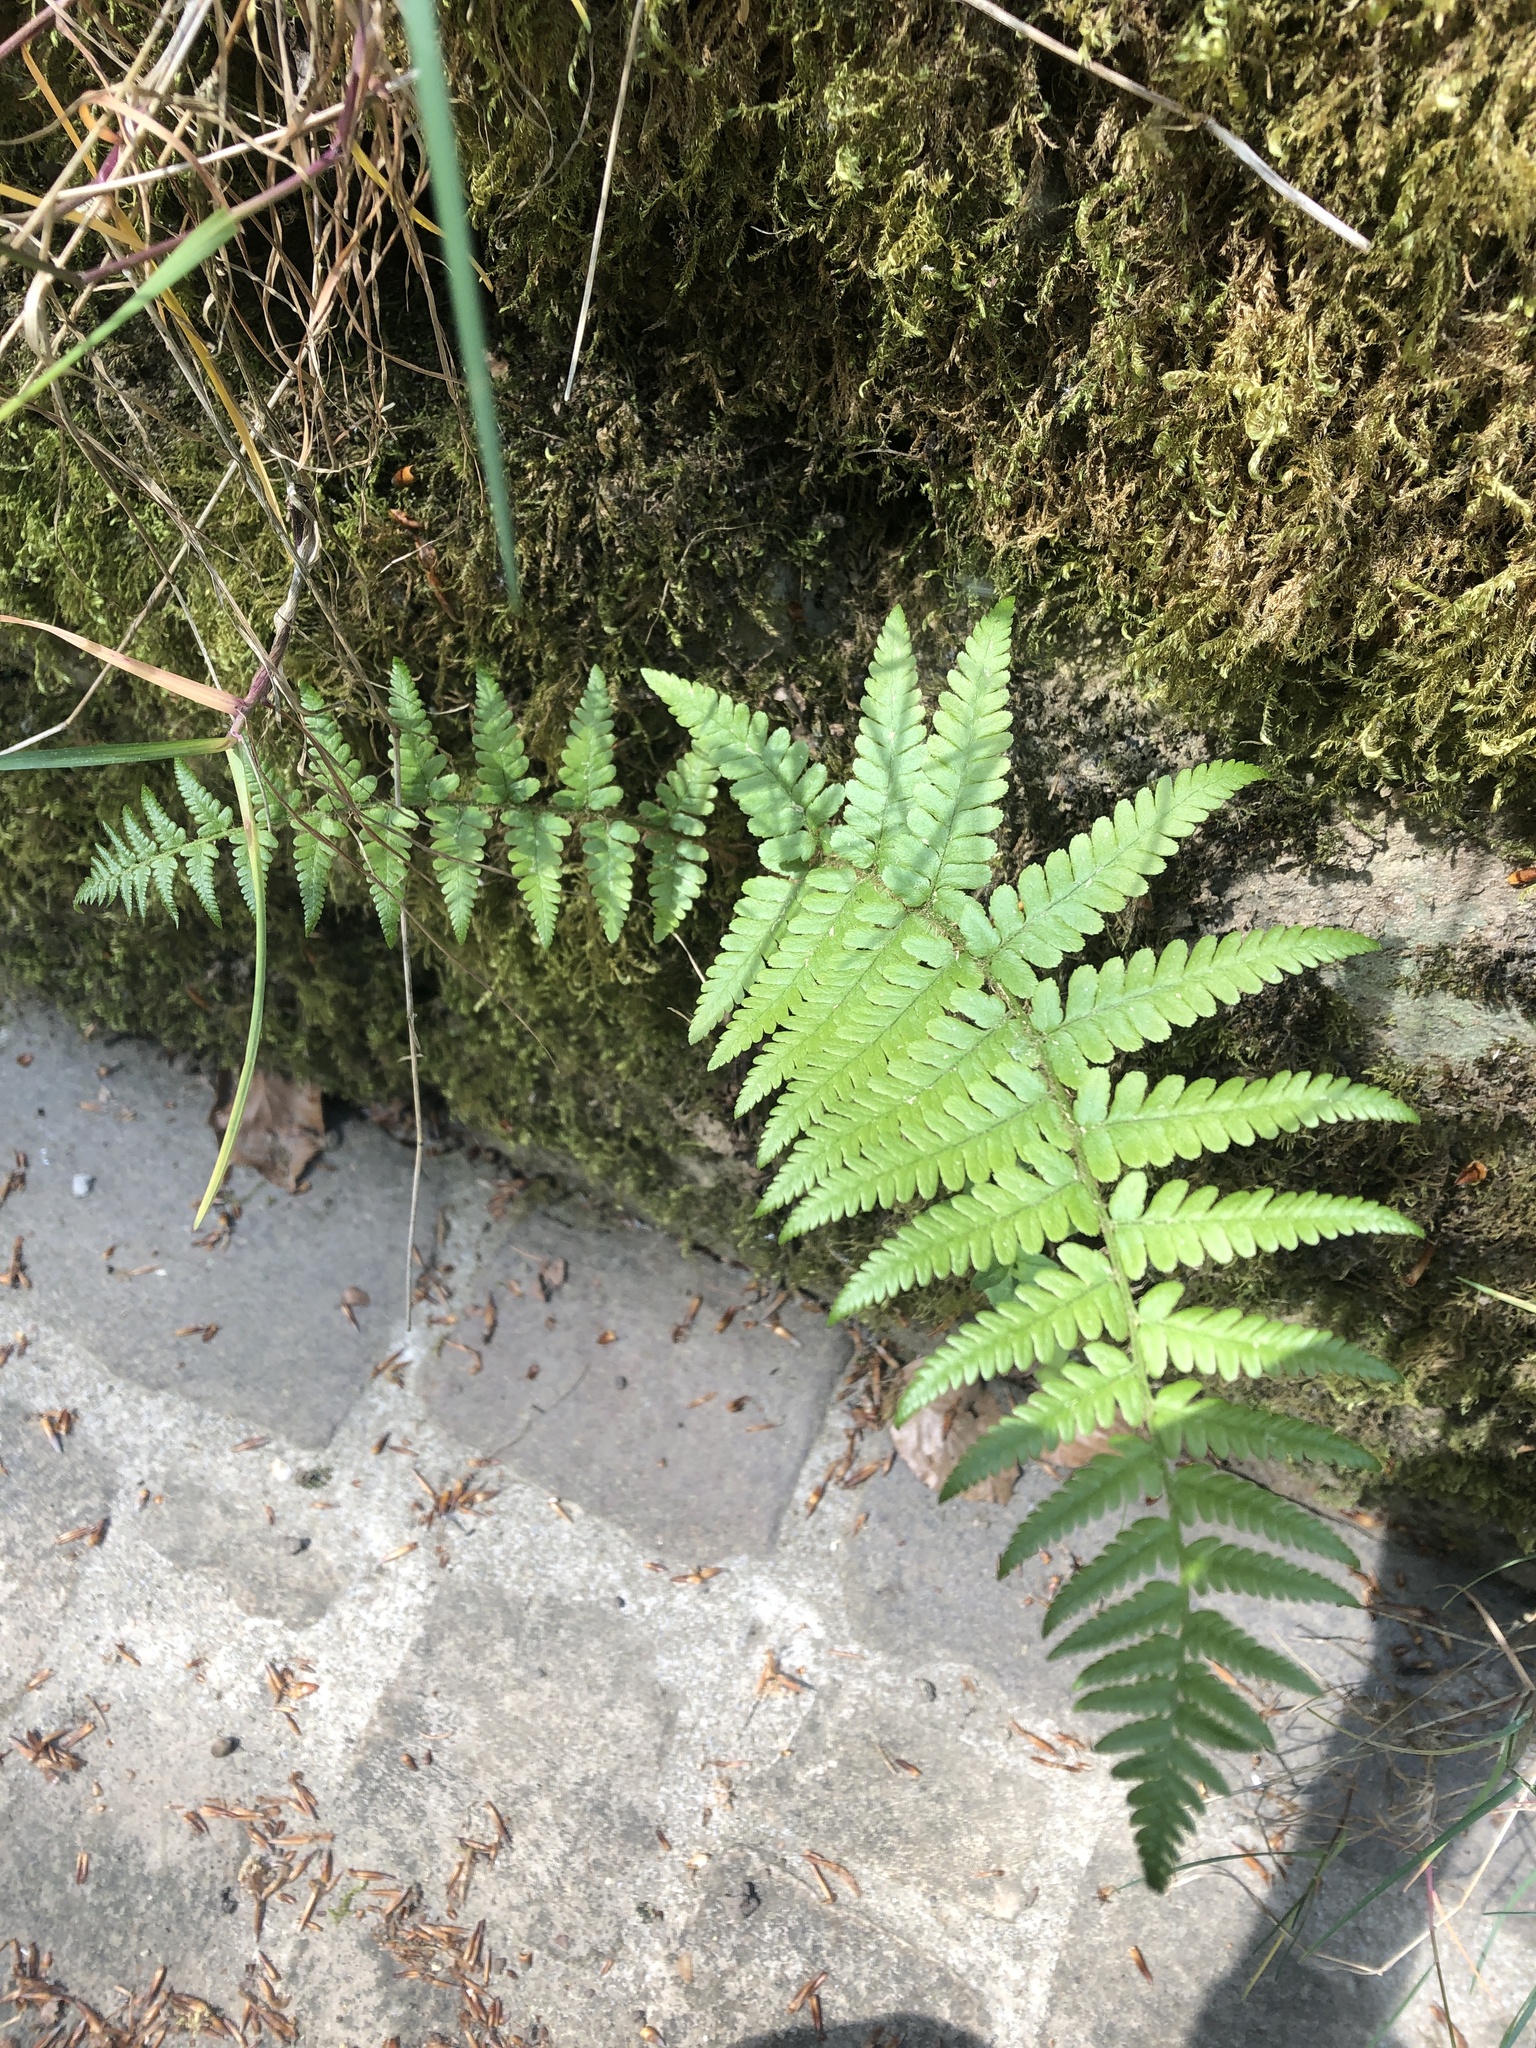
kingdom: Plantae
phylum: Tracheophyta
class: Polypodiopsida
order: Polypodiales
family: Dryopteridaceae
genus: Dryopteris
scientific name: Dryopteris filix-mas
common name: Male fern
